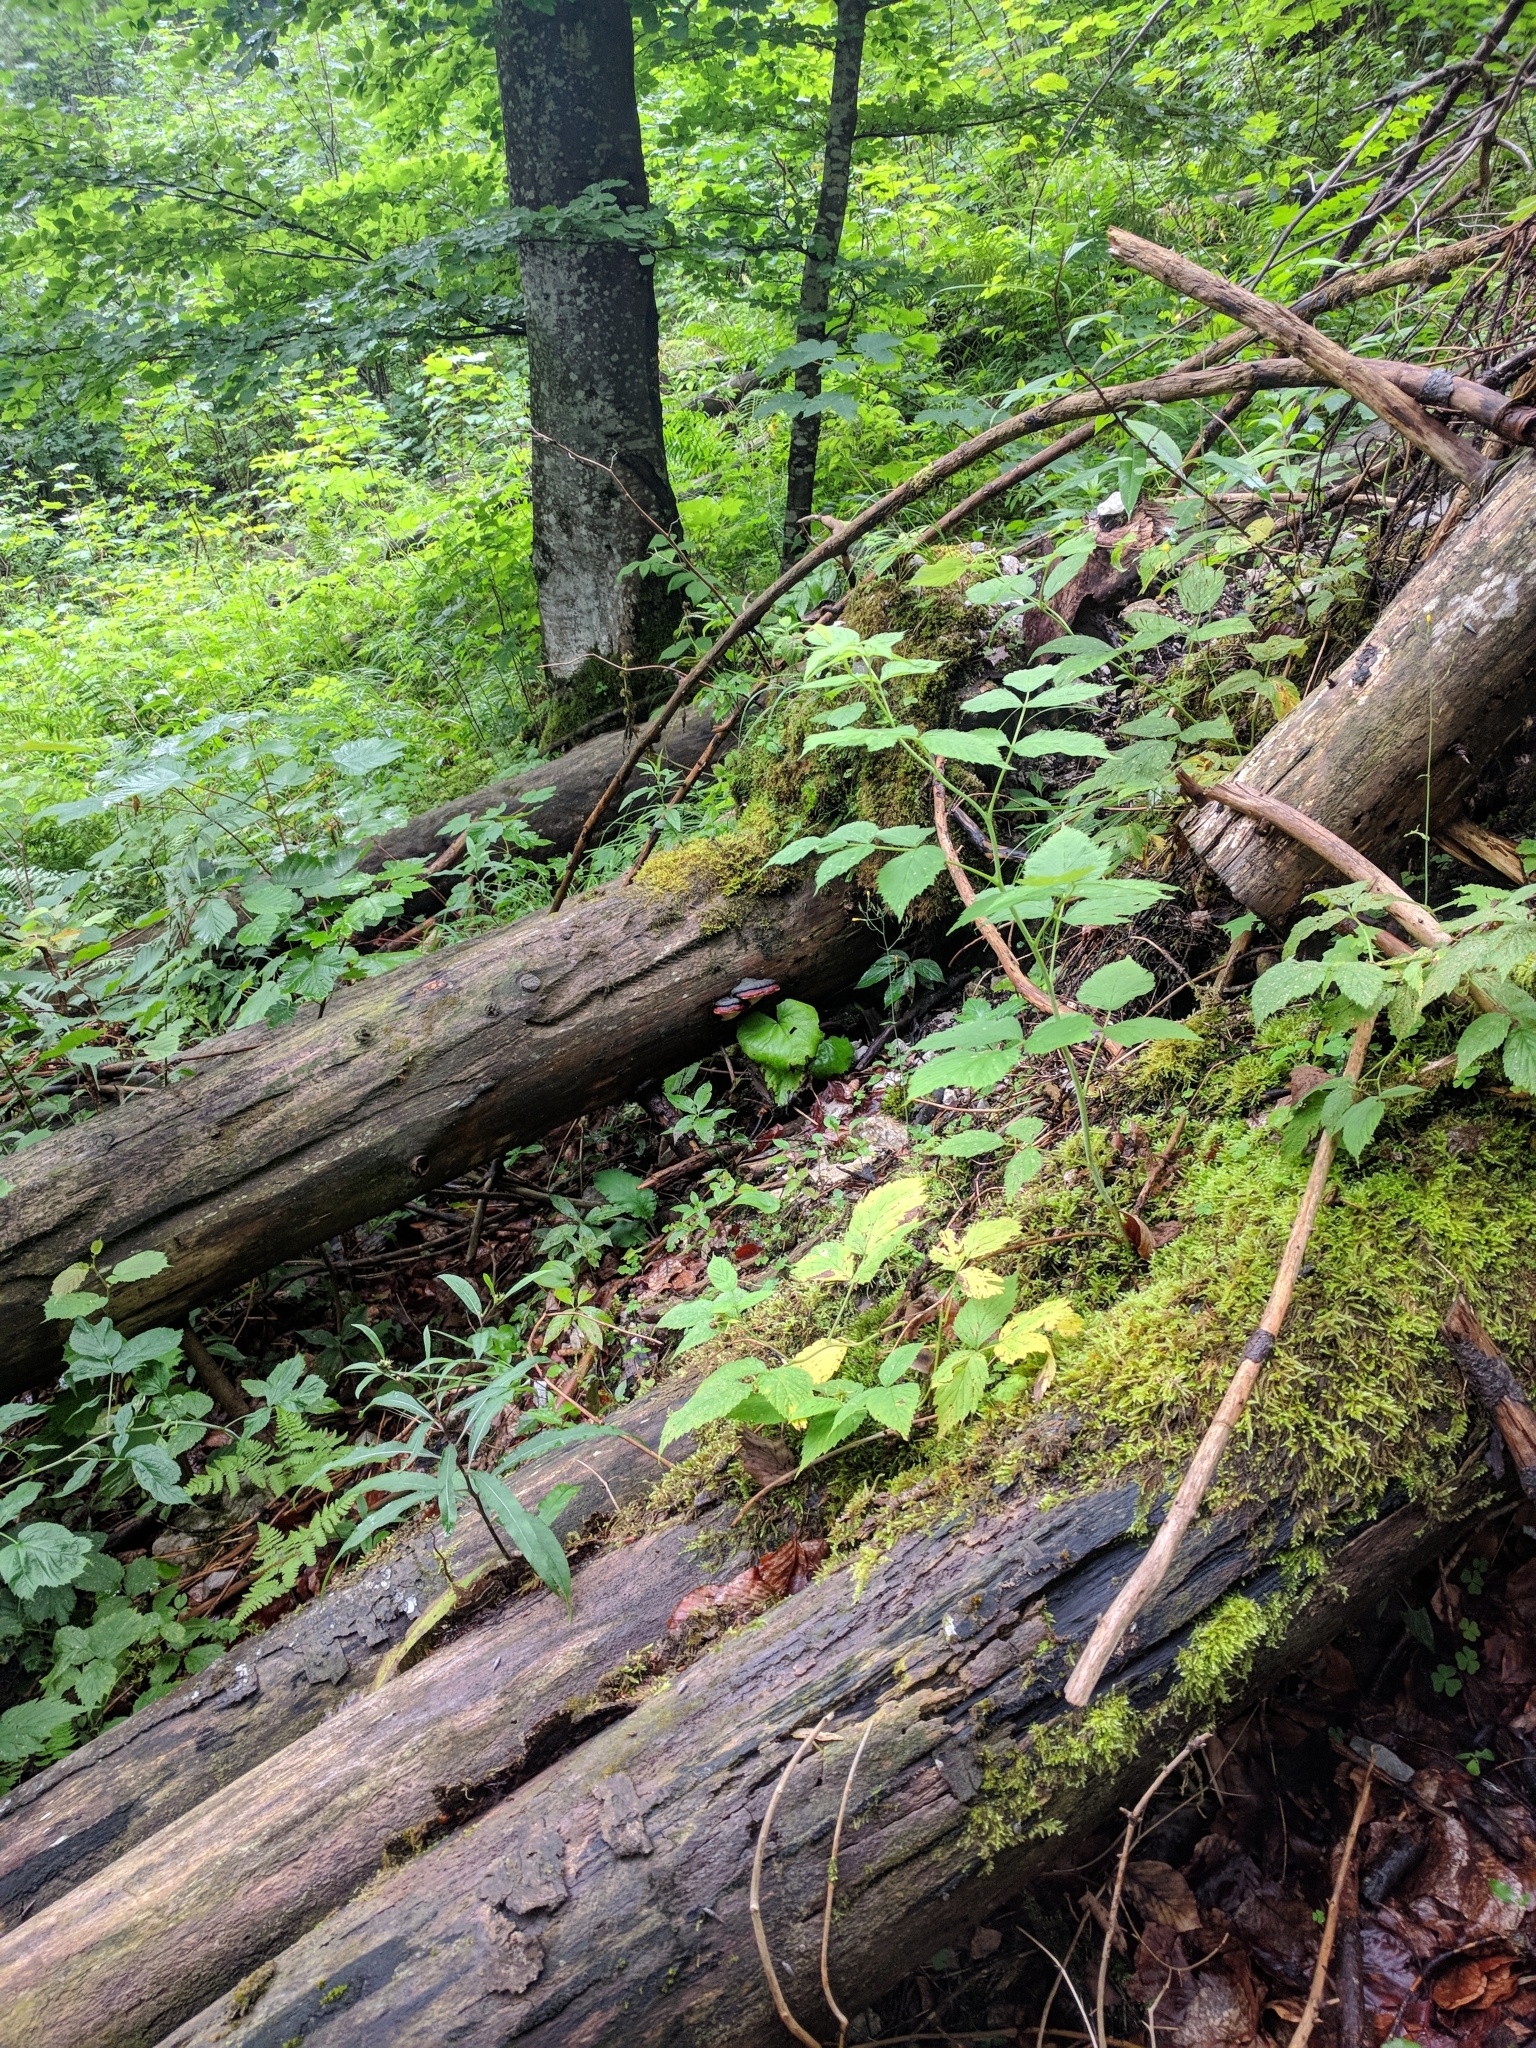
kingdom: Fungi
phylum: Basidiomycota
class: Agaricomycetes
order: Polyporales
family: Fomitopsidaceae
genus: Fomitopsis
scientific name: Fomitopsis pinicola
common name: Red-belted bracket
